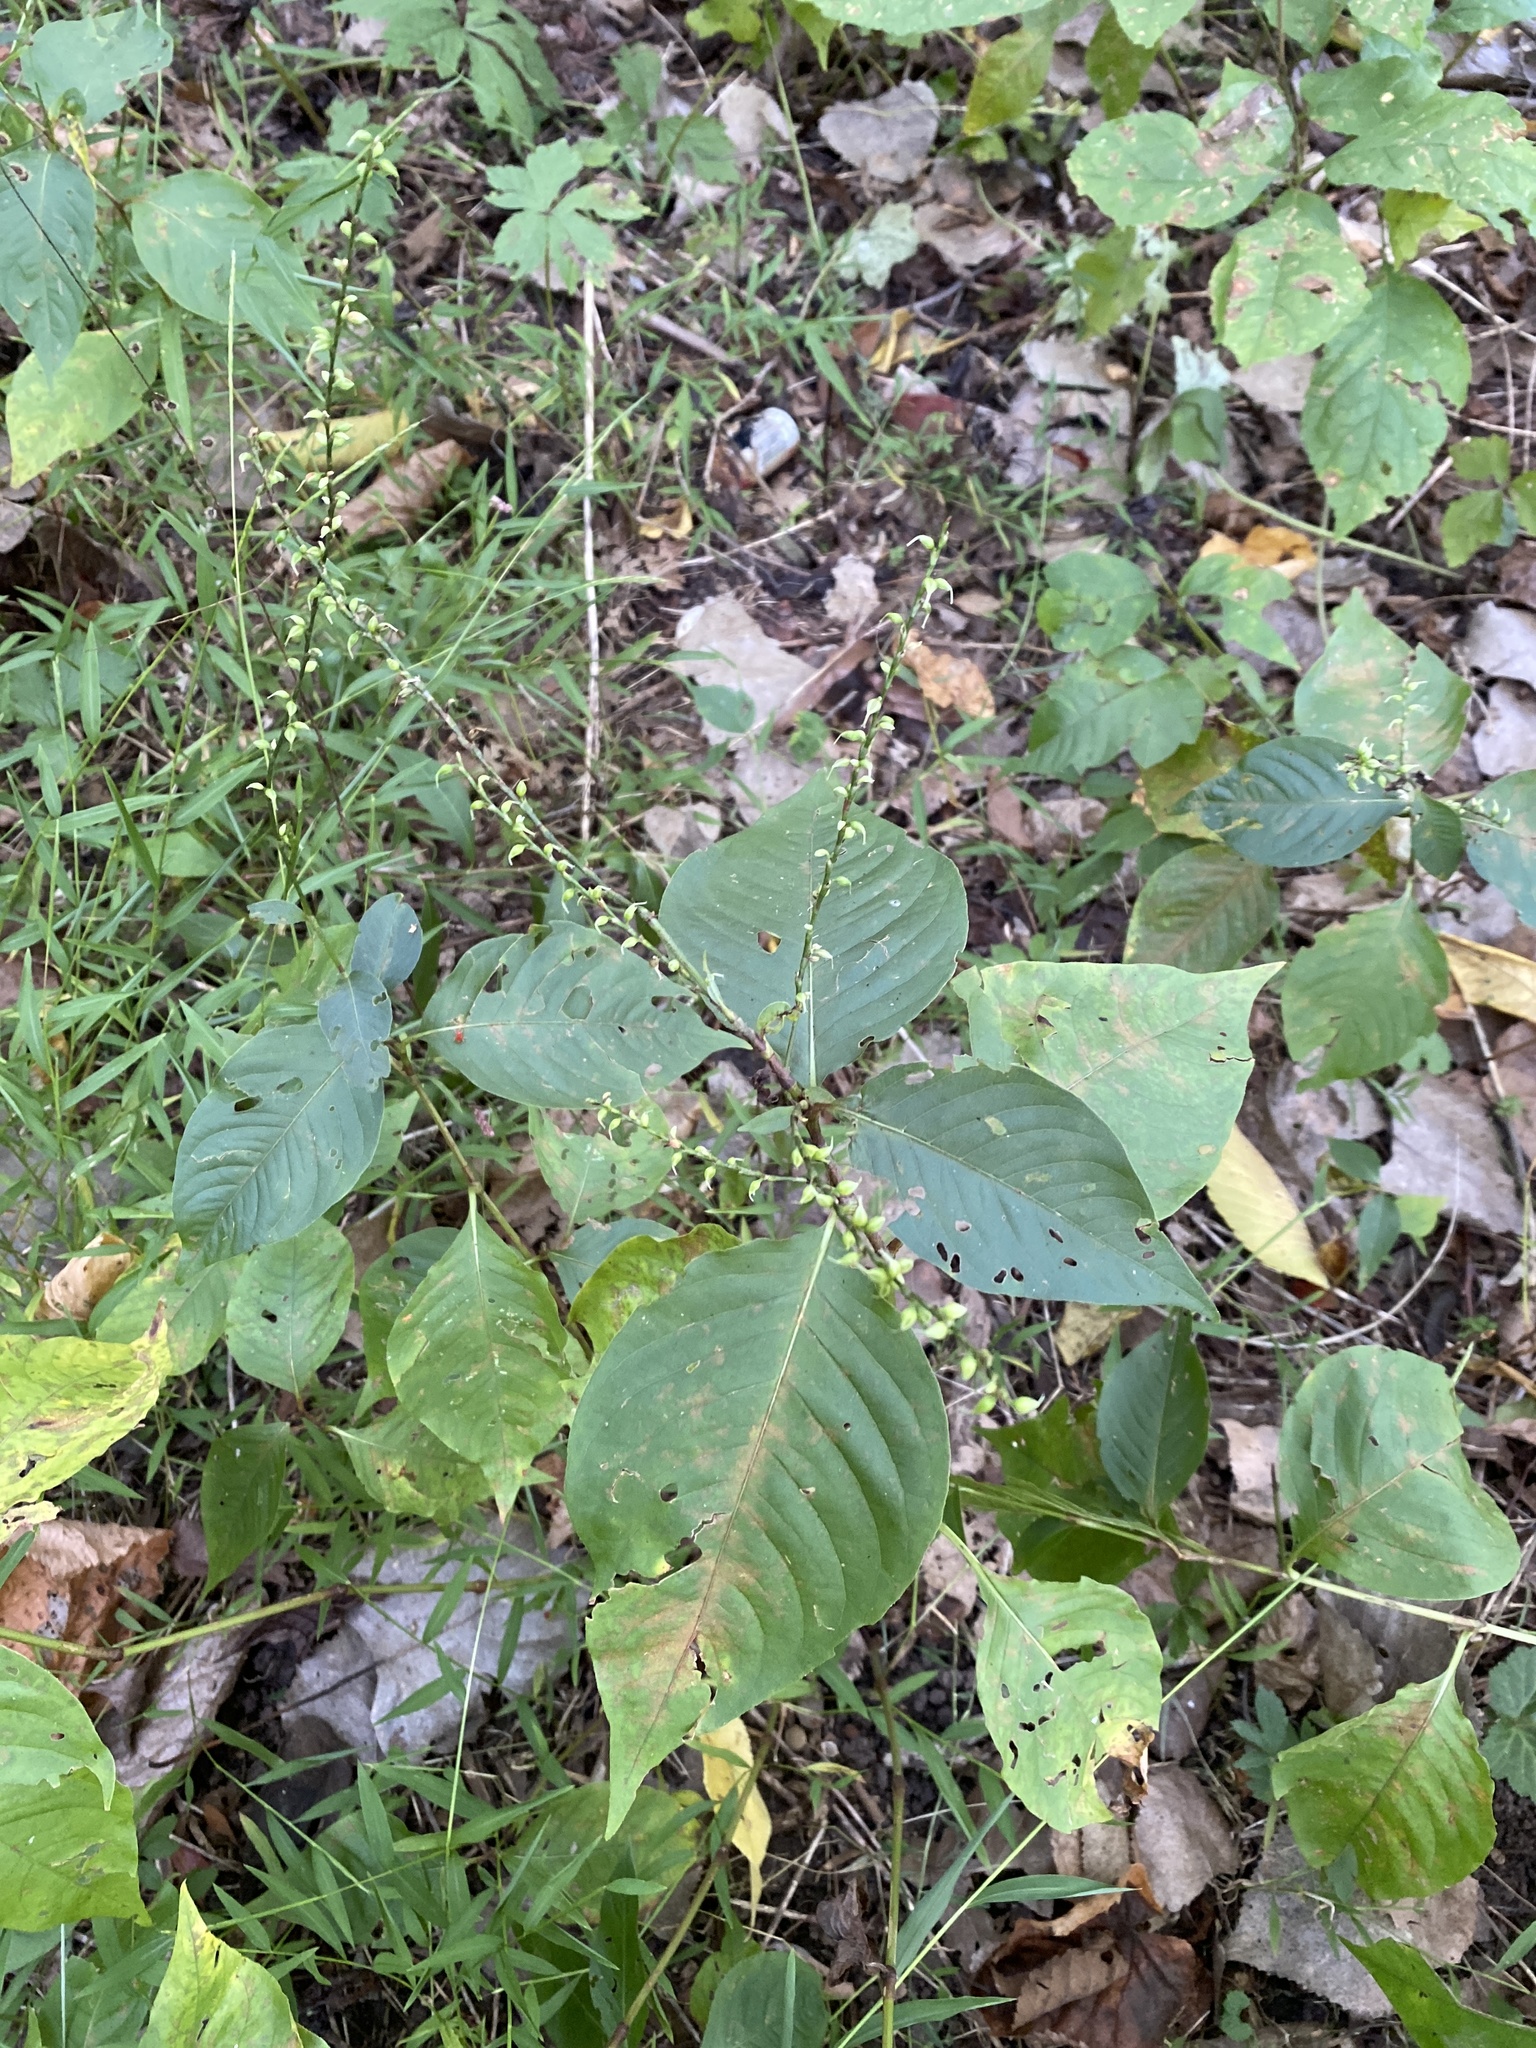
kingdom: Plantae
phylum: Tracheophyta
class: Magnoliopsida
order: Caryophyllales
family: Polygonaceae
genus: Persicaria
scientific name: Persicaria virginiana
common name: Jumpseed
